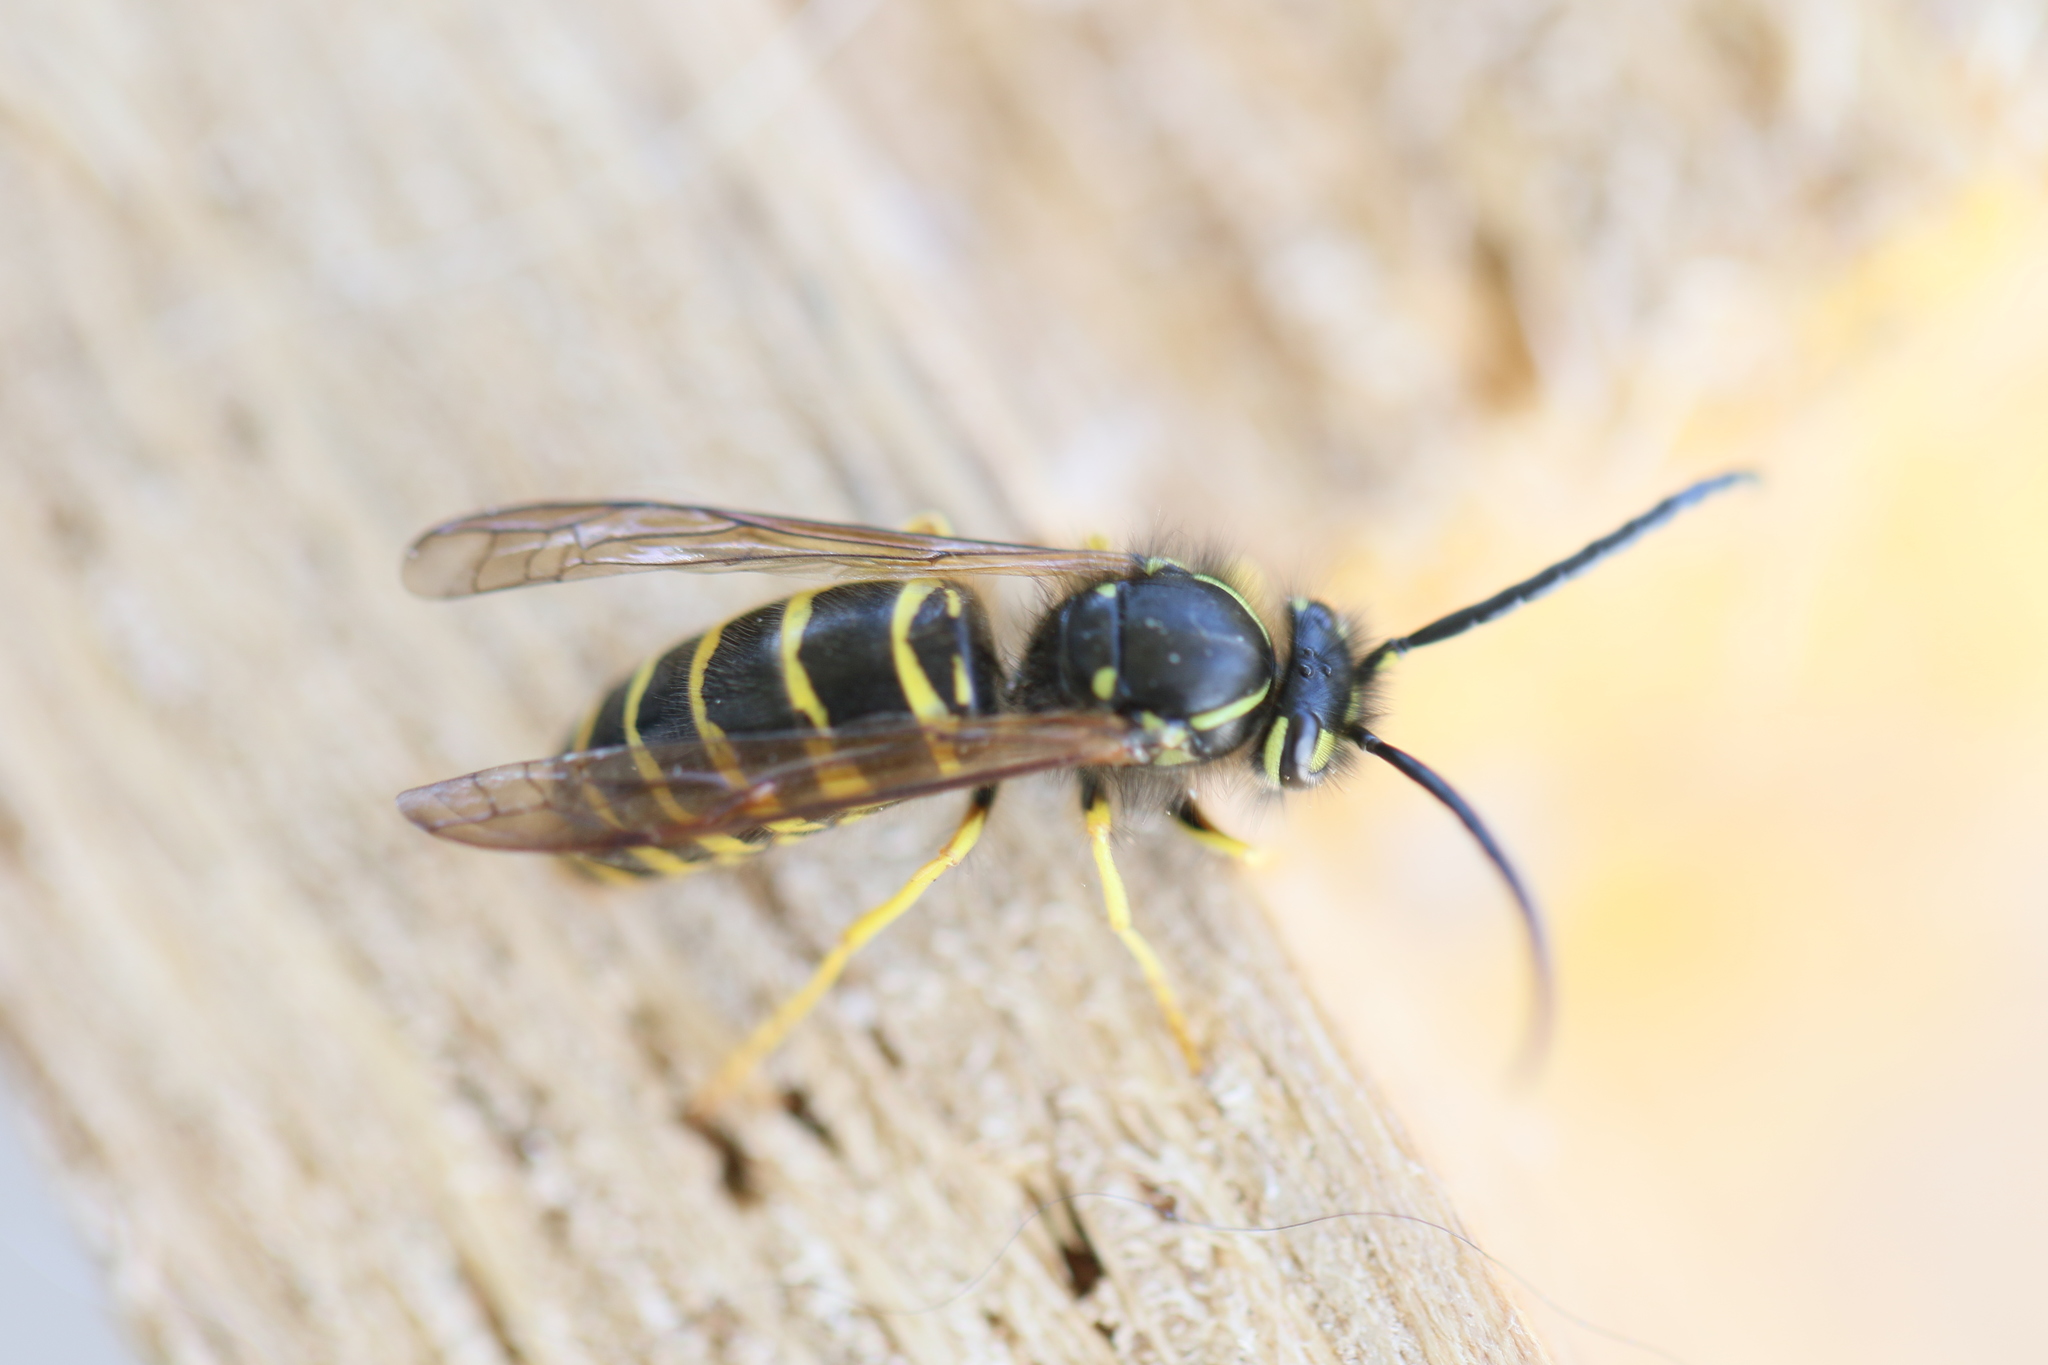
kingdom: Animalia
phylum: Arthropoda
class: Insecta
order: Hymenoptera
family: Vespidae
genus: Vespula
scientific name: Vespula maculifrons
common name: Eastern yellowjacket
